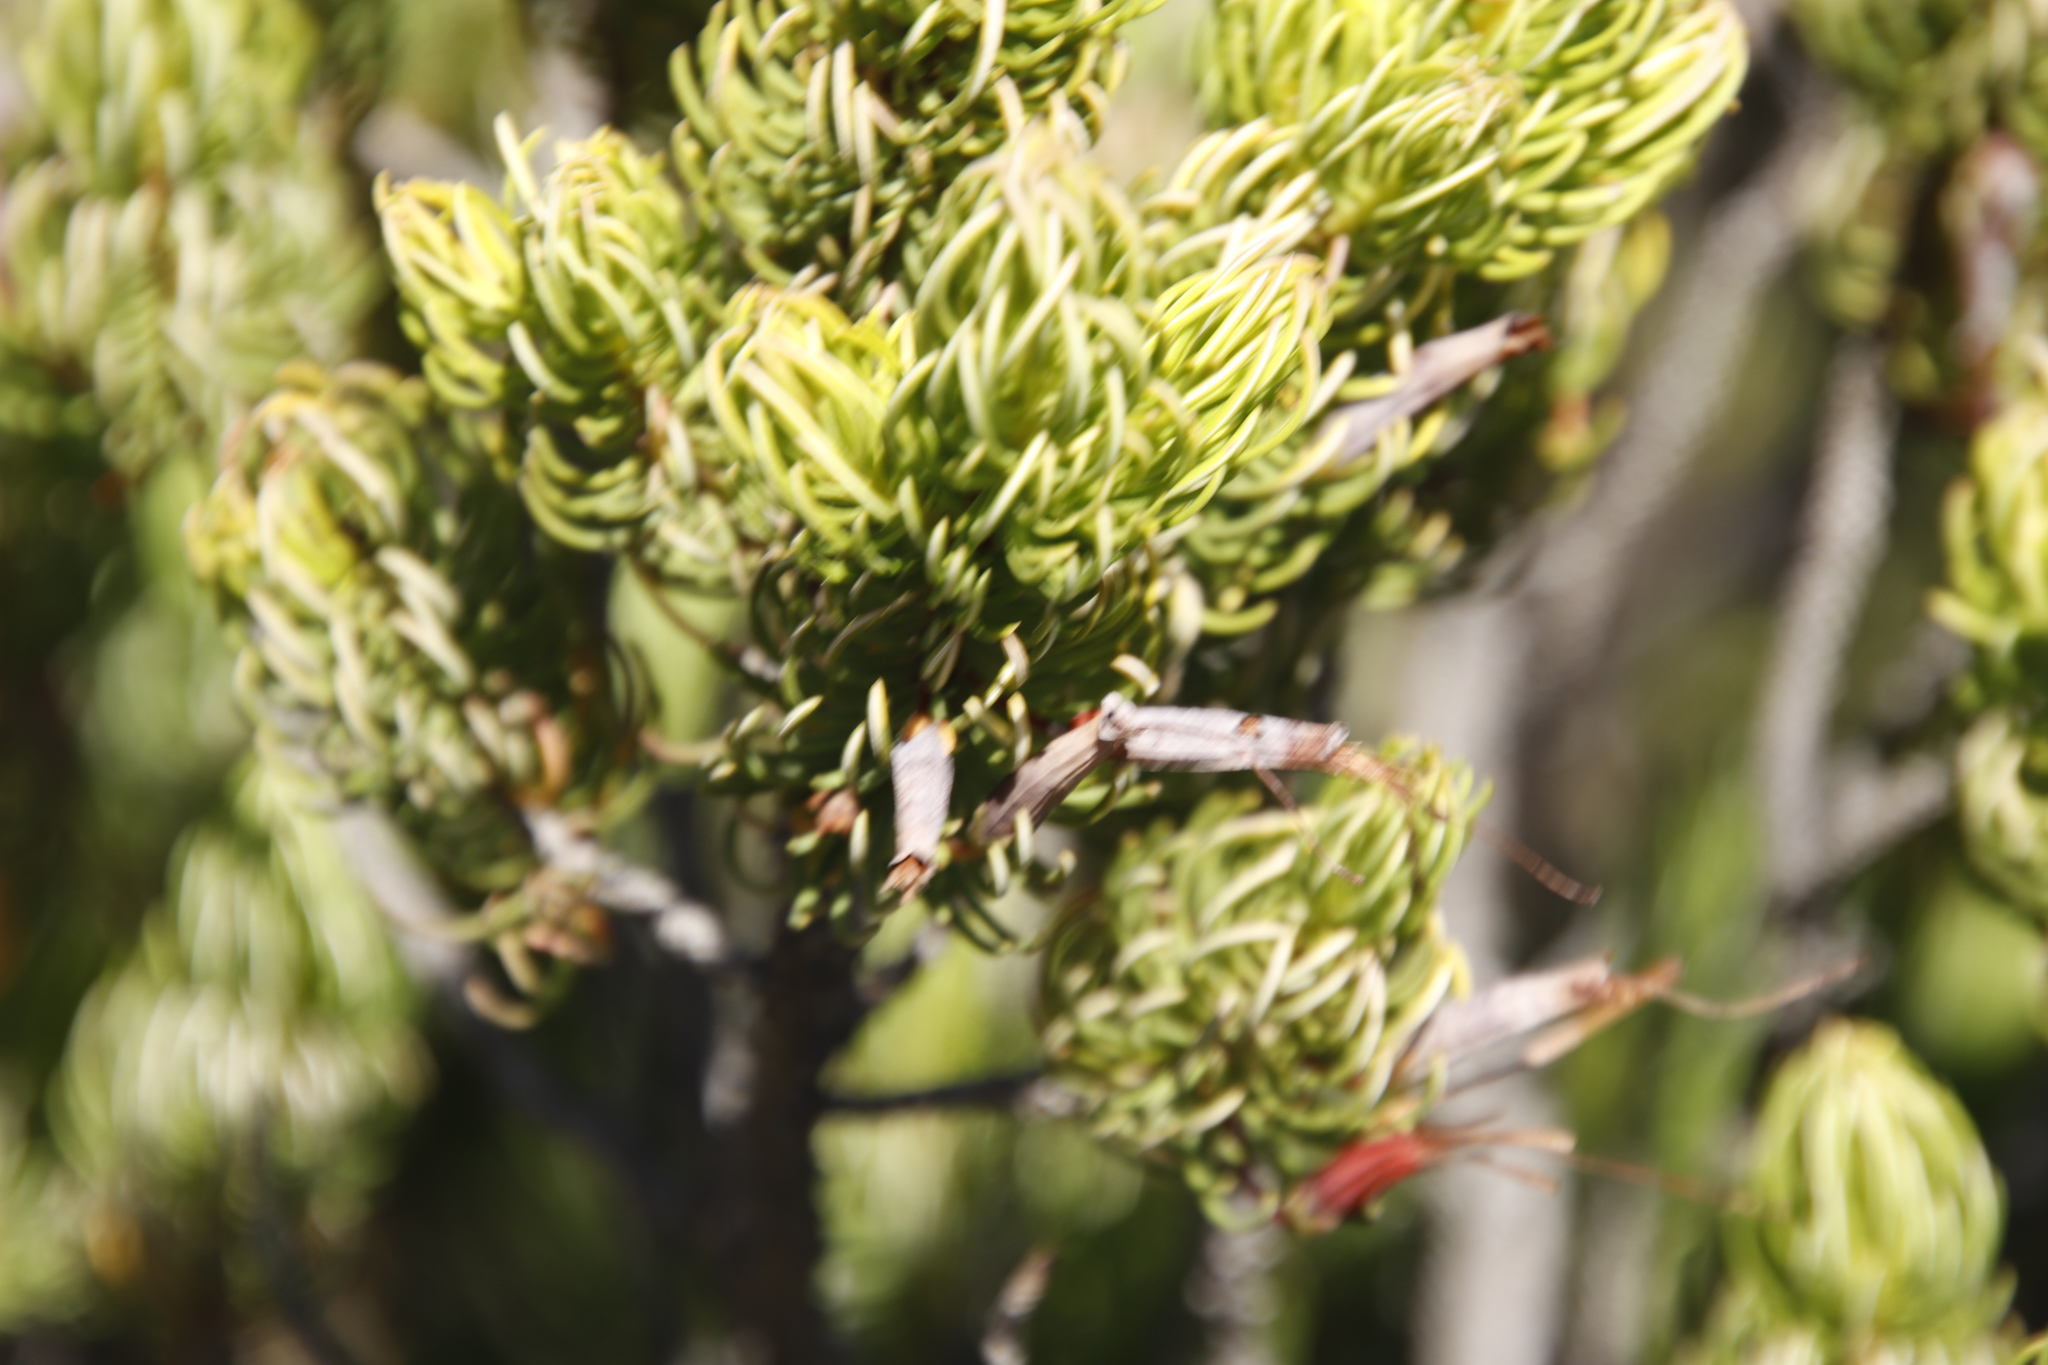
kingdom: Plantae
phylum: Tracheophyta
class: Magnoliopsida
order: Ericales
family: Ericaceae
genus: Erica
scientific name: Erica plukenetii
